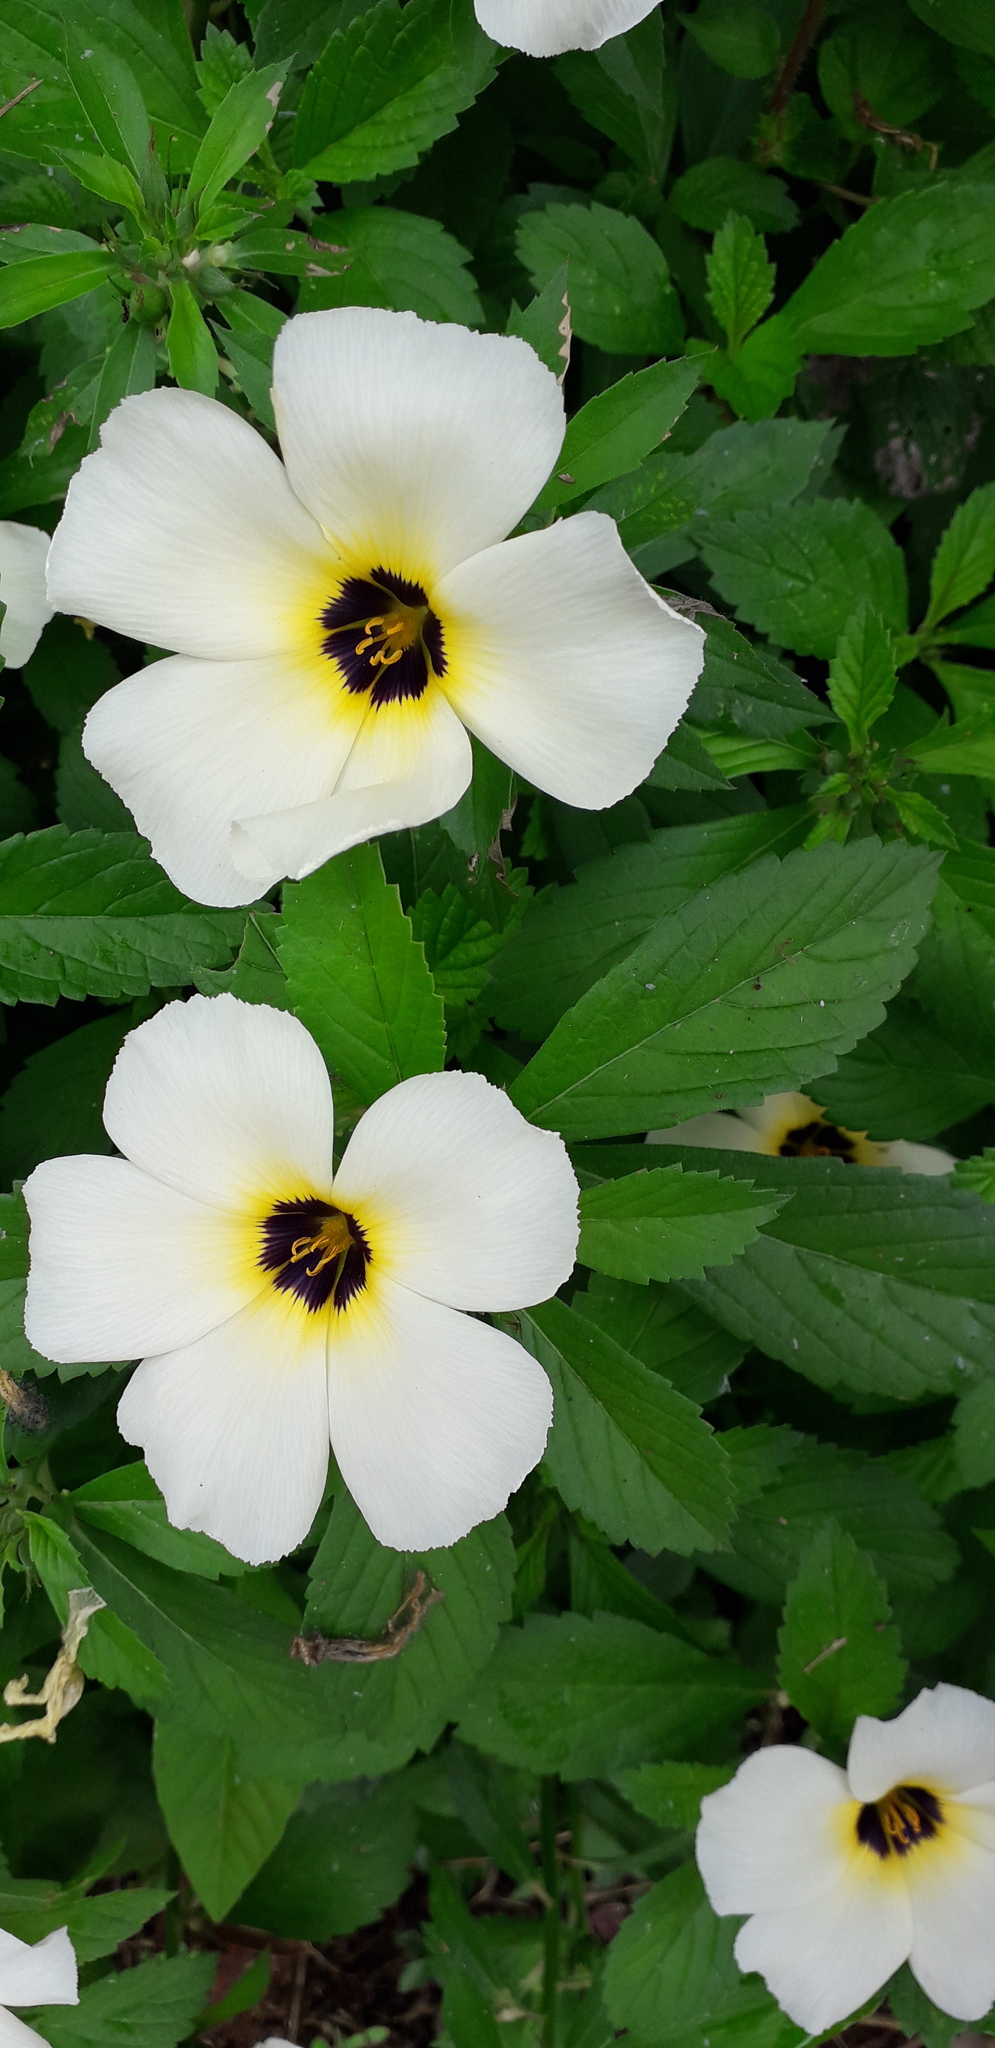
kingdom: Plantae
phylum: Tracheophyta
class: Magnoliopsida
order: Malpighiales
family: Turneraceae
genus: Turnera
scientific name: Turnera subulata
